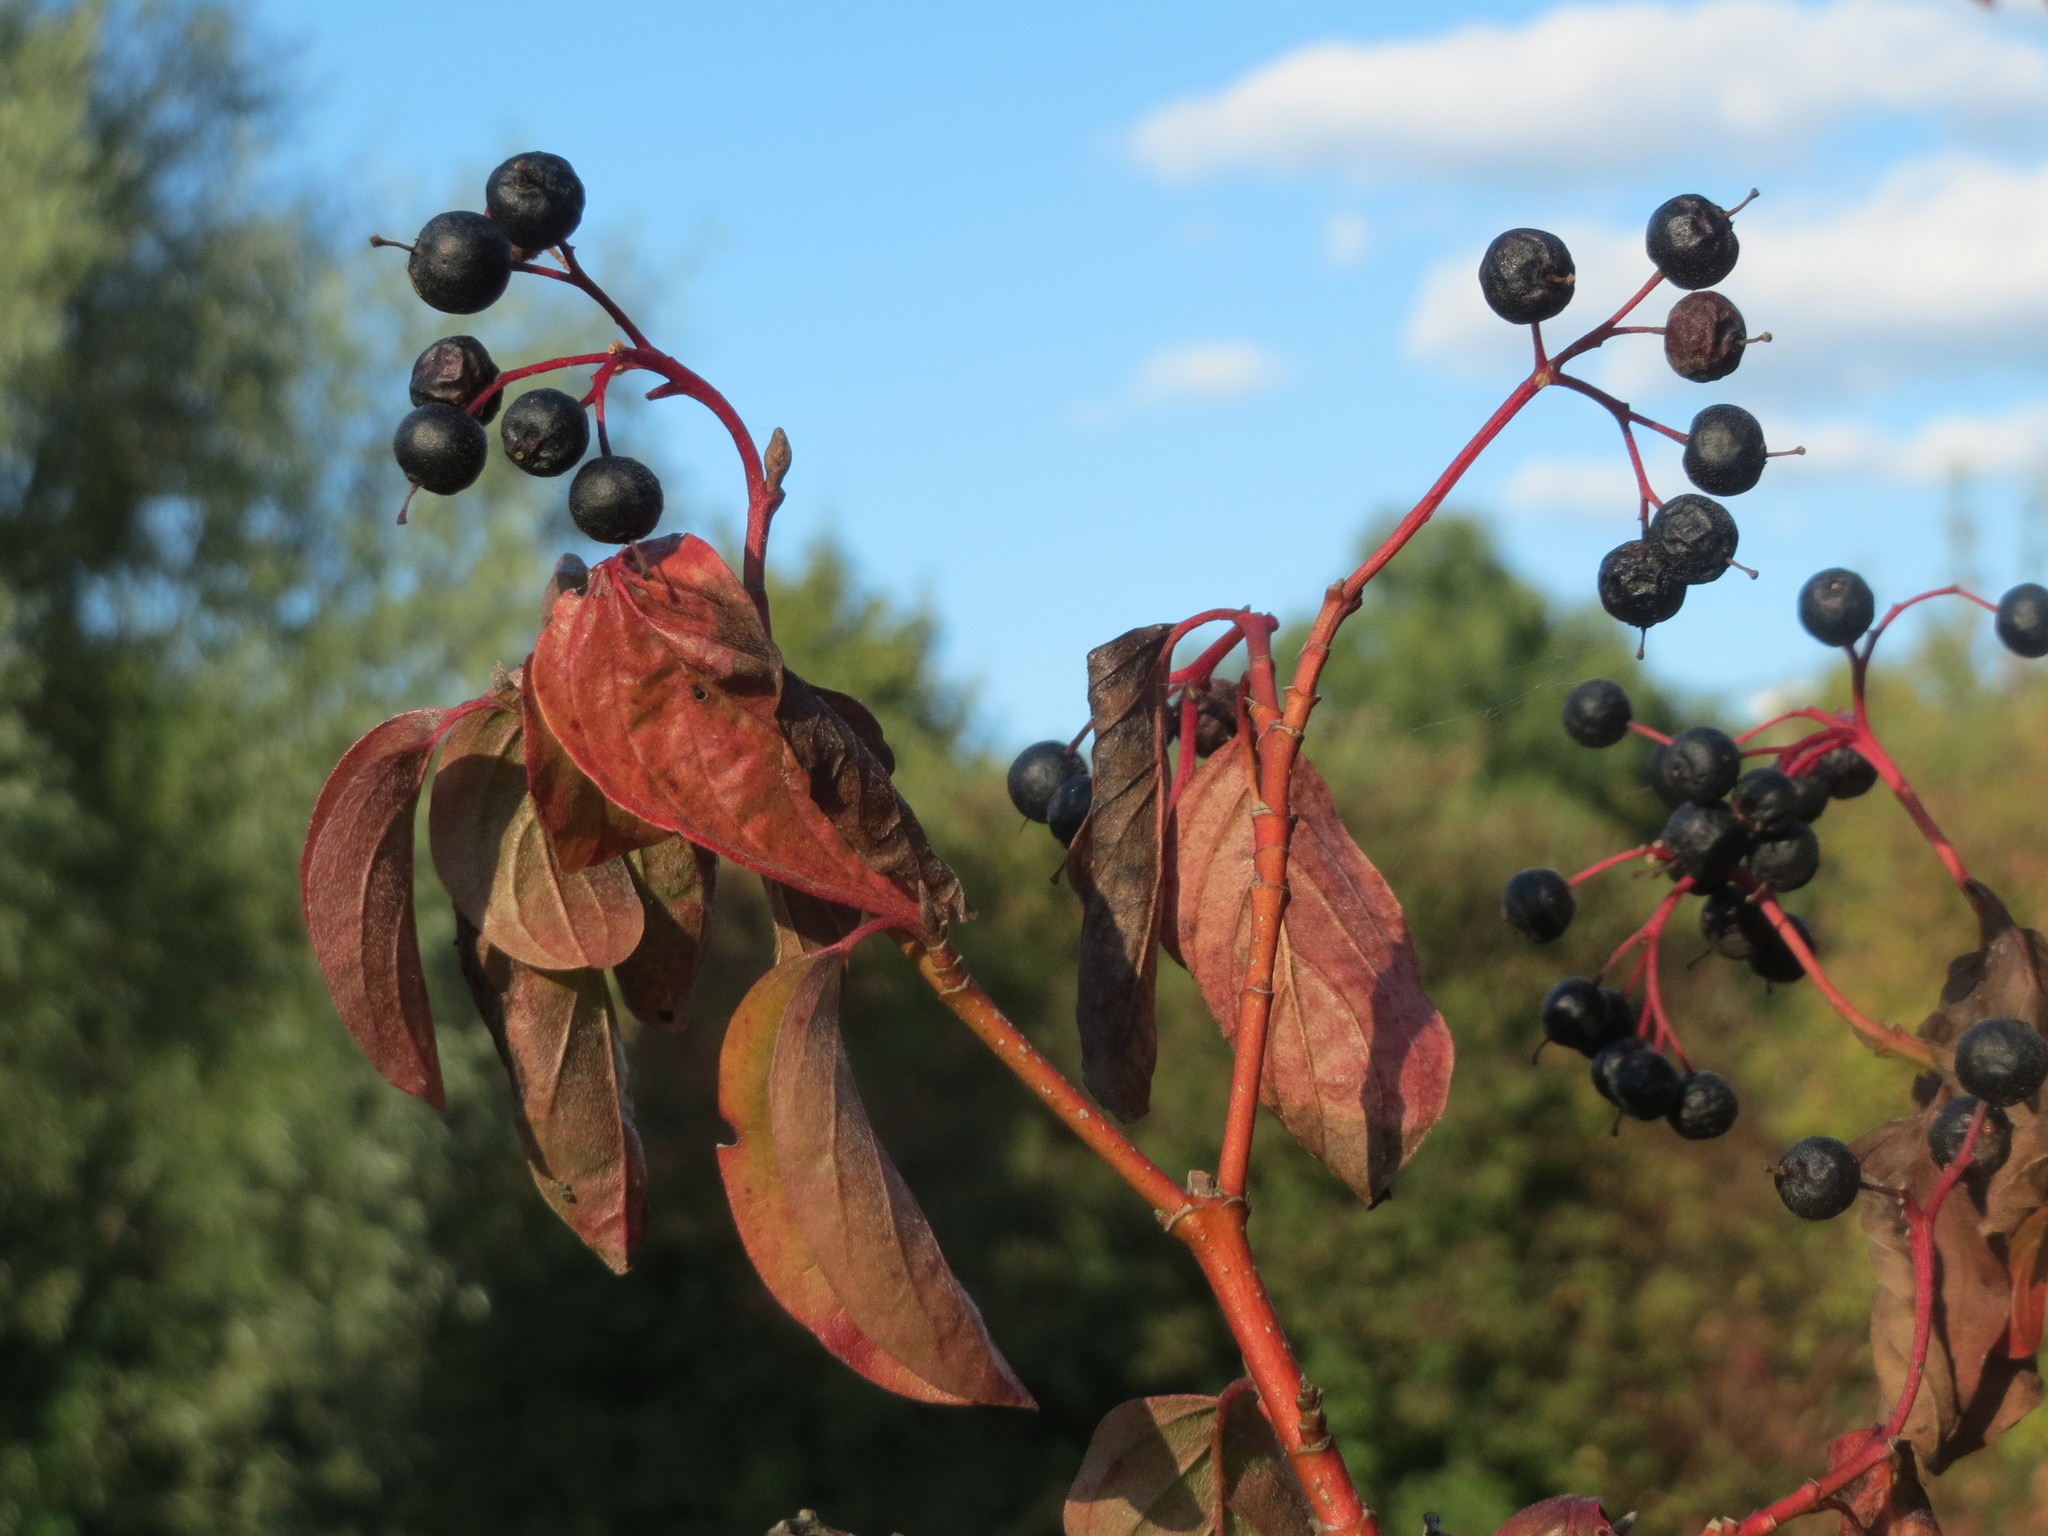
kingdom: Plantae
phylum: Tracheophyta
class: Magnoliopsida
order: Cornales
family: Cornaceae
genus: Cornus
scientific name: Cornus sanguinea
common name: Dogwood
